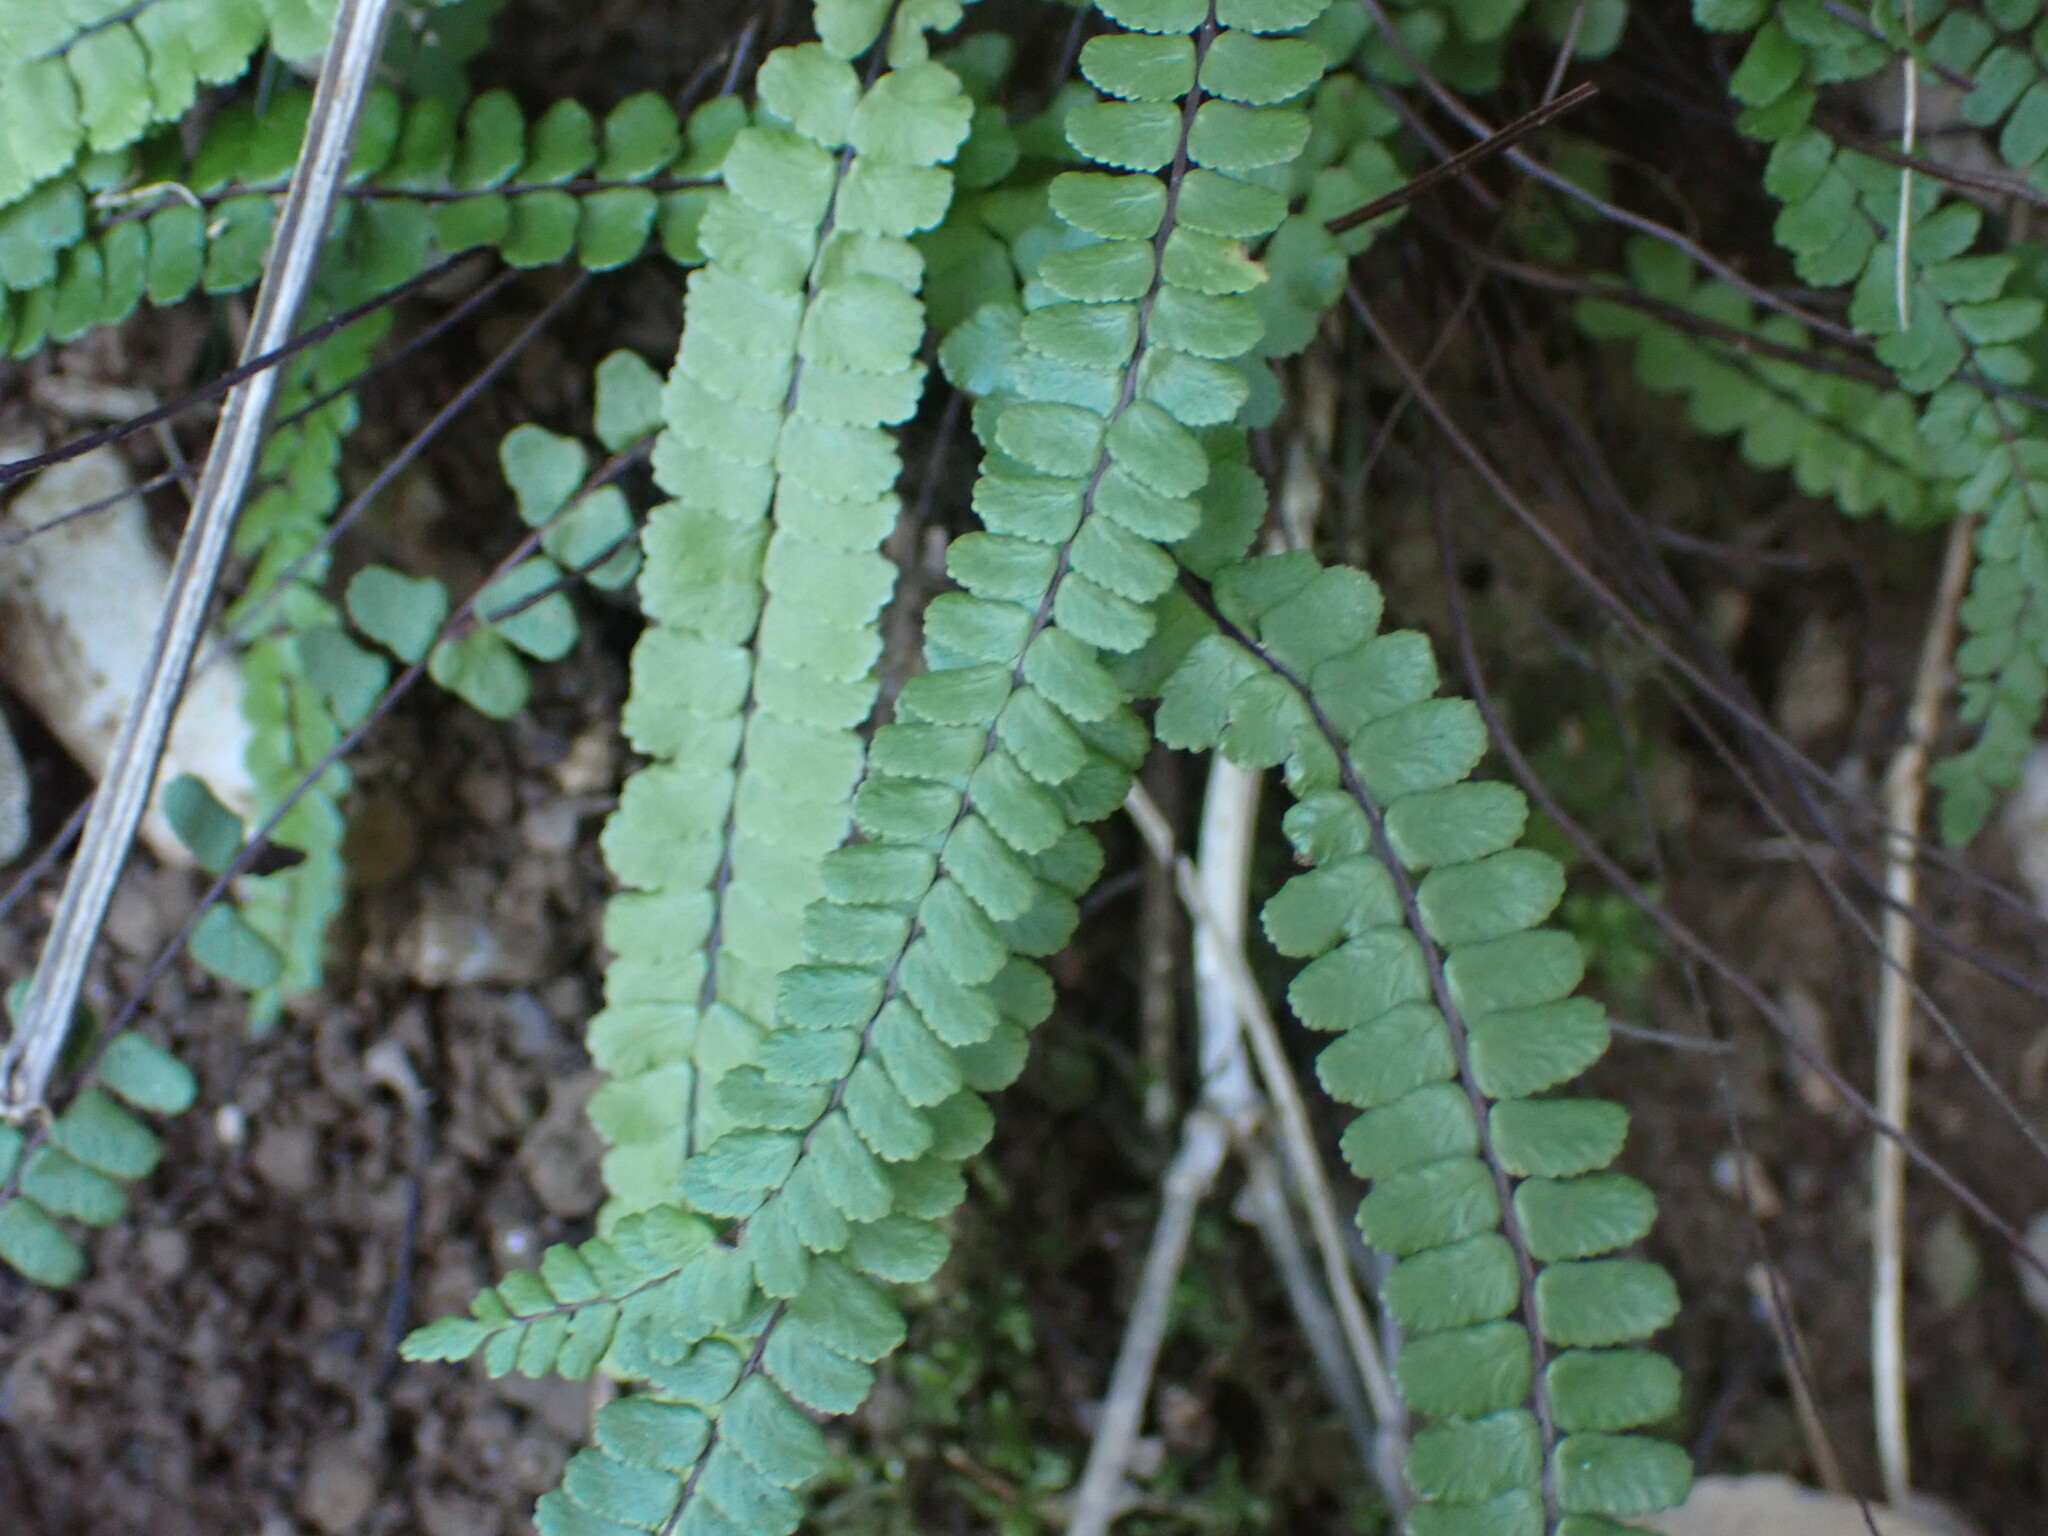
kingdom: Plantae
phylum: Tracheophyta
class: Polypodiopsida
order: Polypodiales
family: Aspleniaceae
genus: Asplenium
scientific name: Asplenium trichomanes
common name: Maidenhair spleenwort
